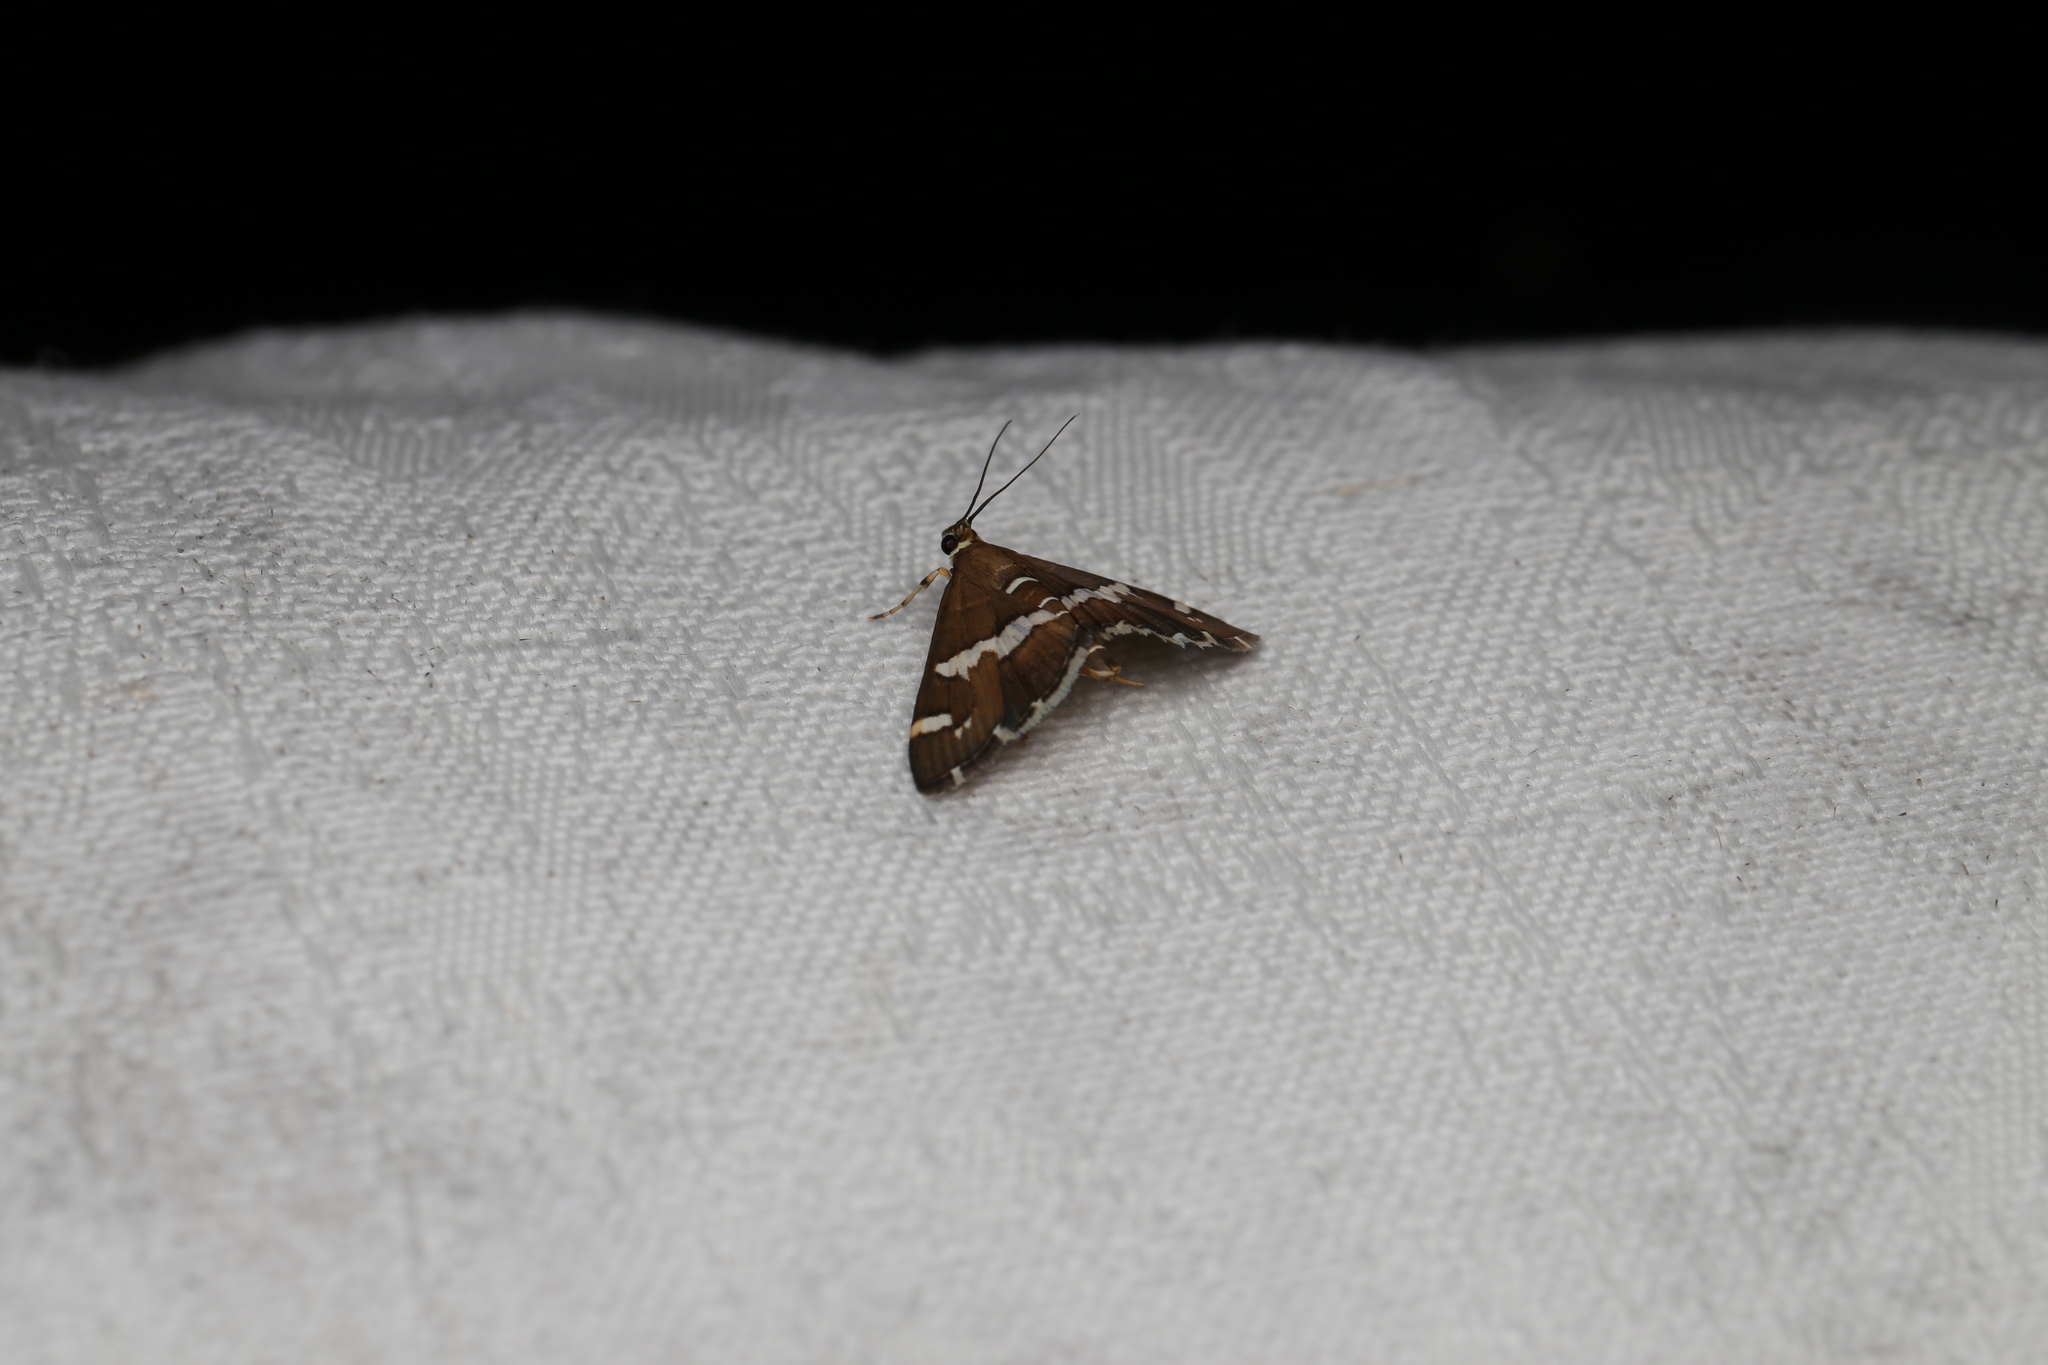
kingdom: Animalia
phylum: Arthropoda
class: Insecta
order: Lepidoptera
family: Crambidae
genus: Spoladea
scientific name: Spoladea recurvalis
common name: Beet webworm moth
